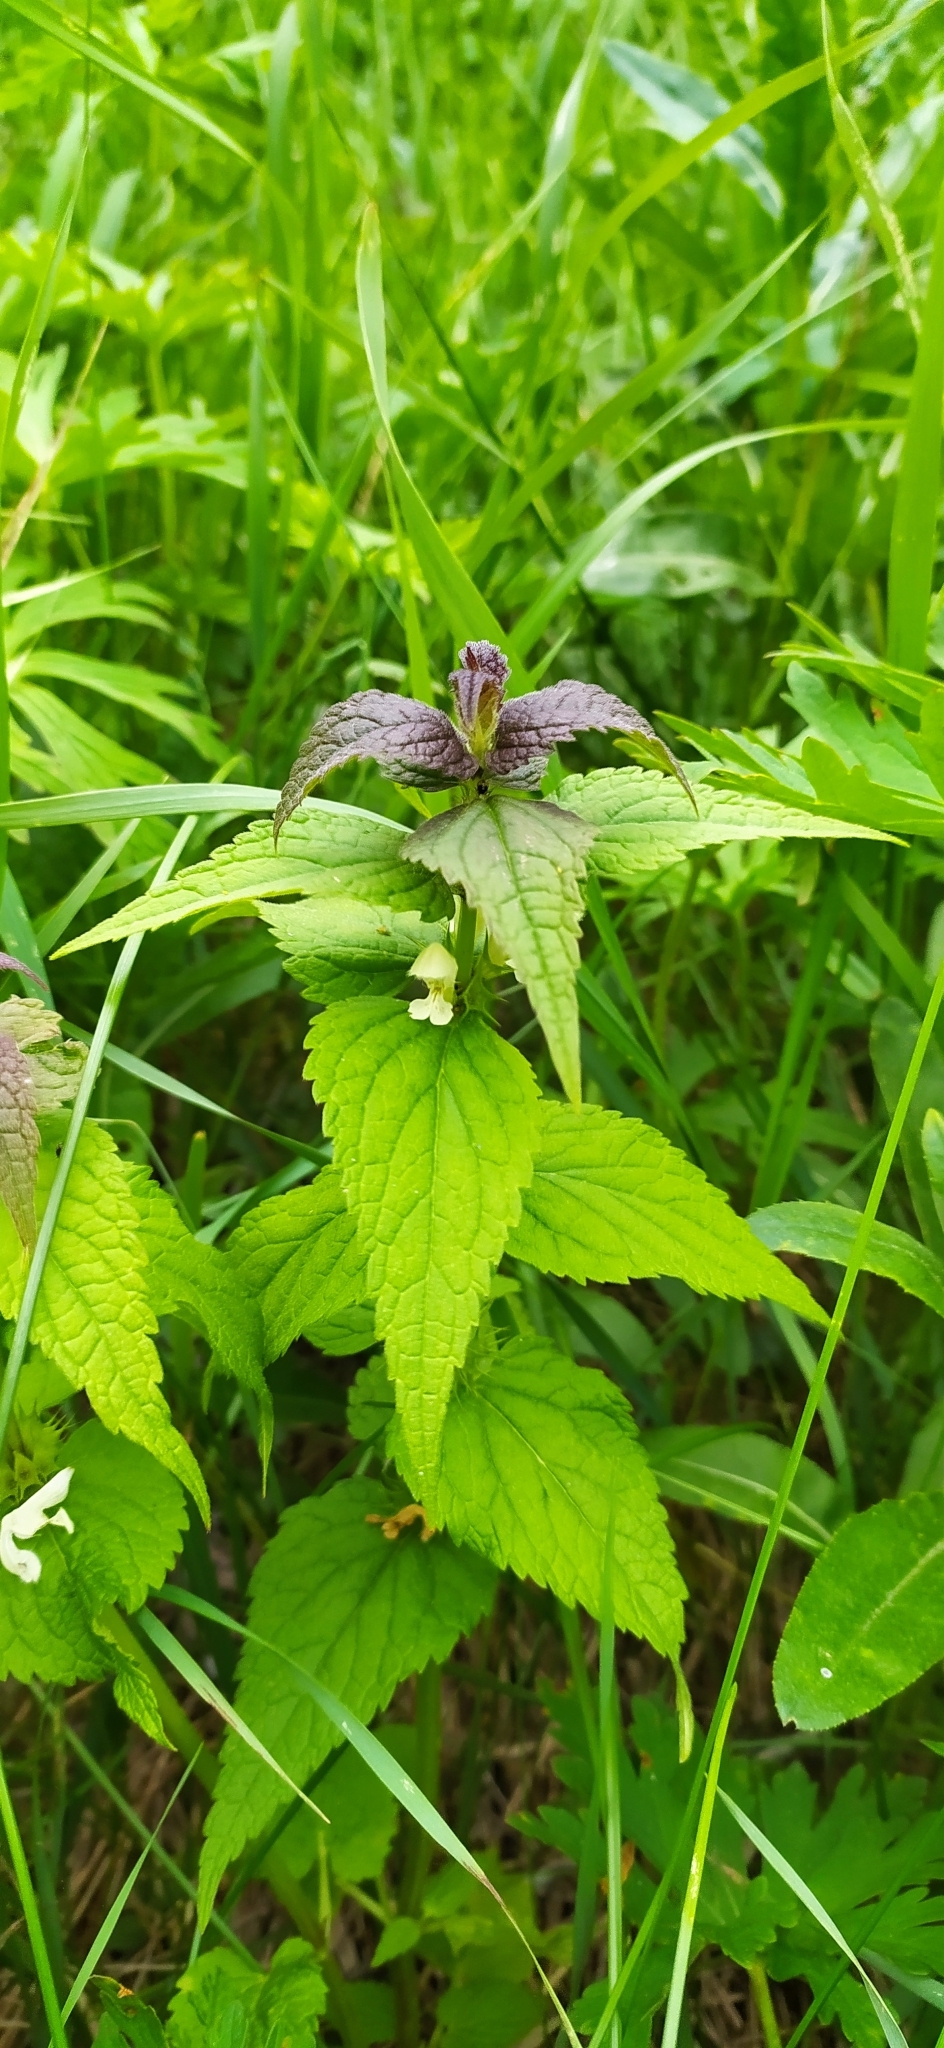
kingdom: Plantae
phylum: Tracheophyta
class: Magnoliopsida
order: Lamiales
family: Lamiaceae
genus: Lamium
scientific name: Lamium album
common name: White dead-nettle
